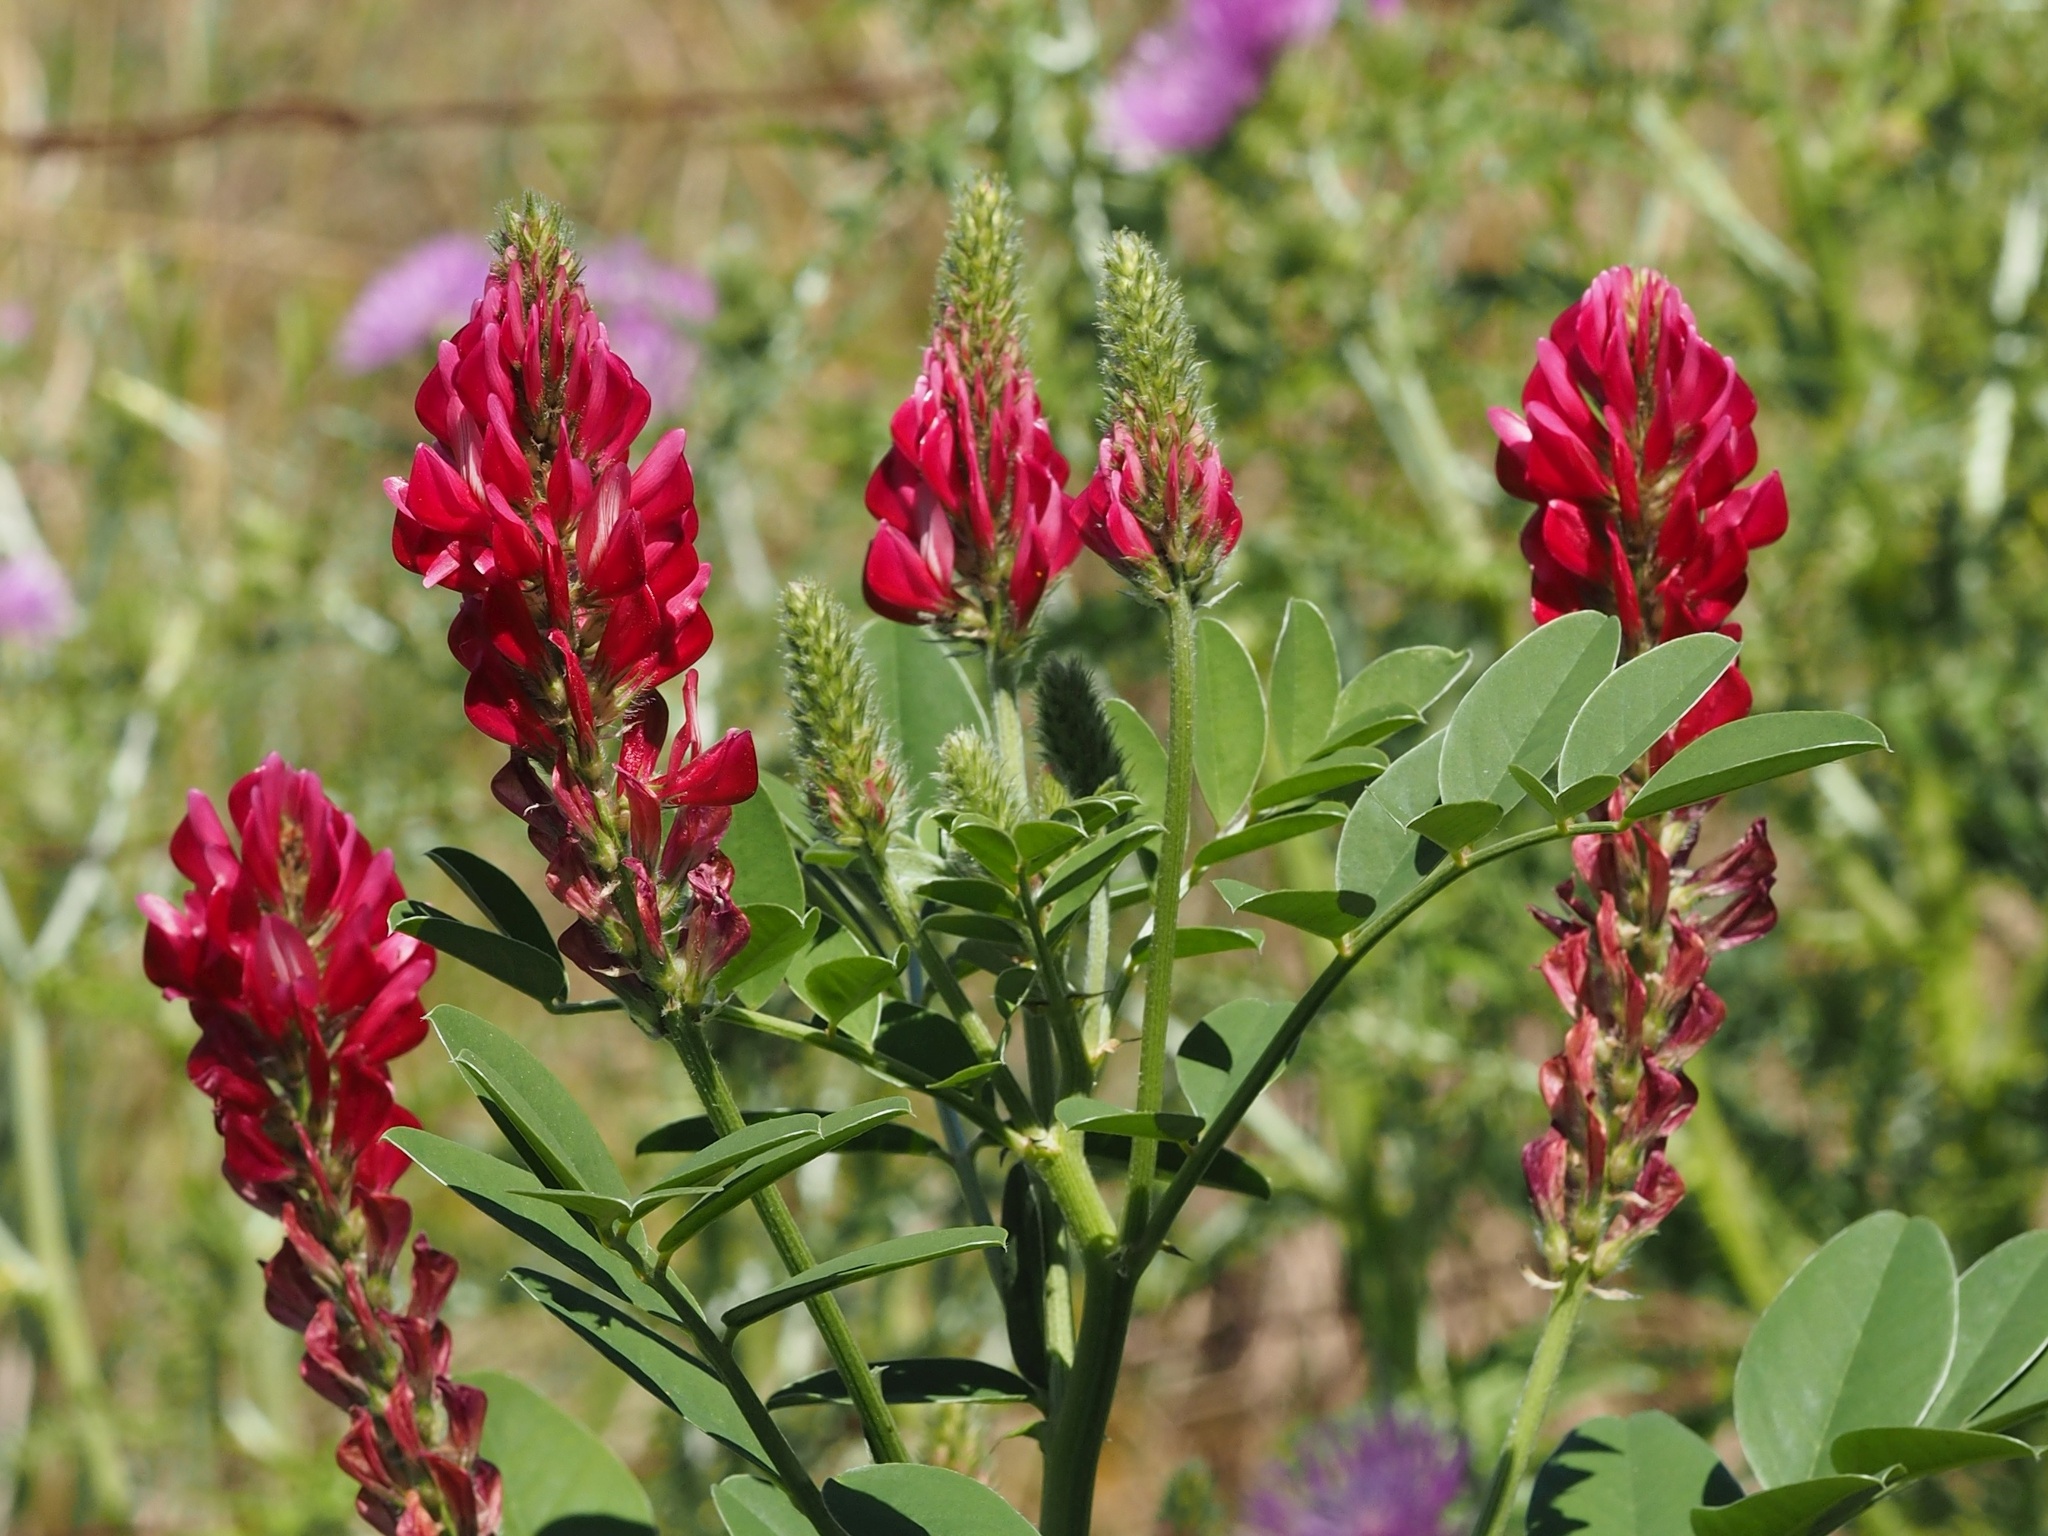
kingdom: Plantae
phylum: Tracheophyta
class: Magnoliopsida
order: Fabales
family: Fabaceae
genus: Sulla
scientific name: Sulla coronaria
